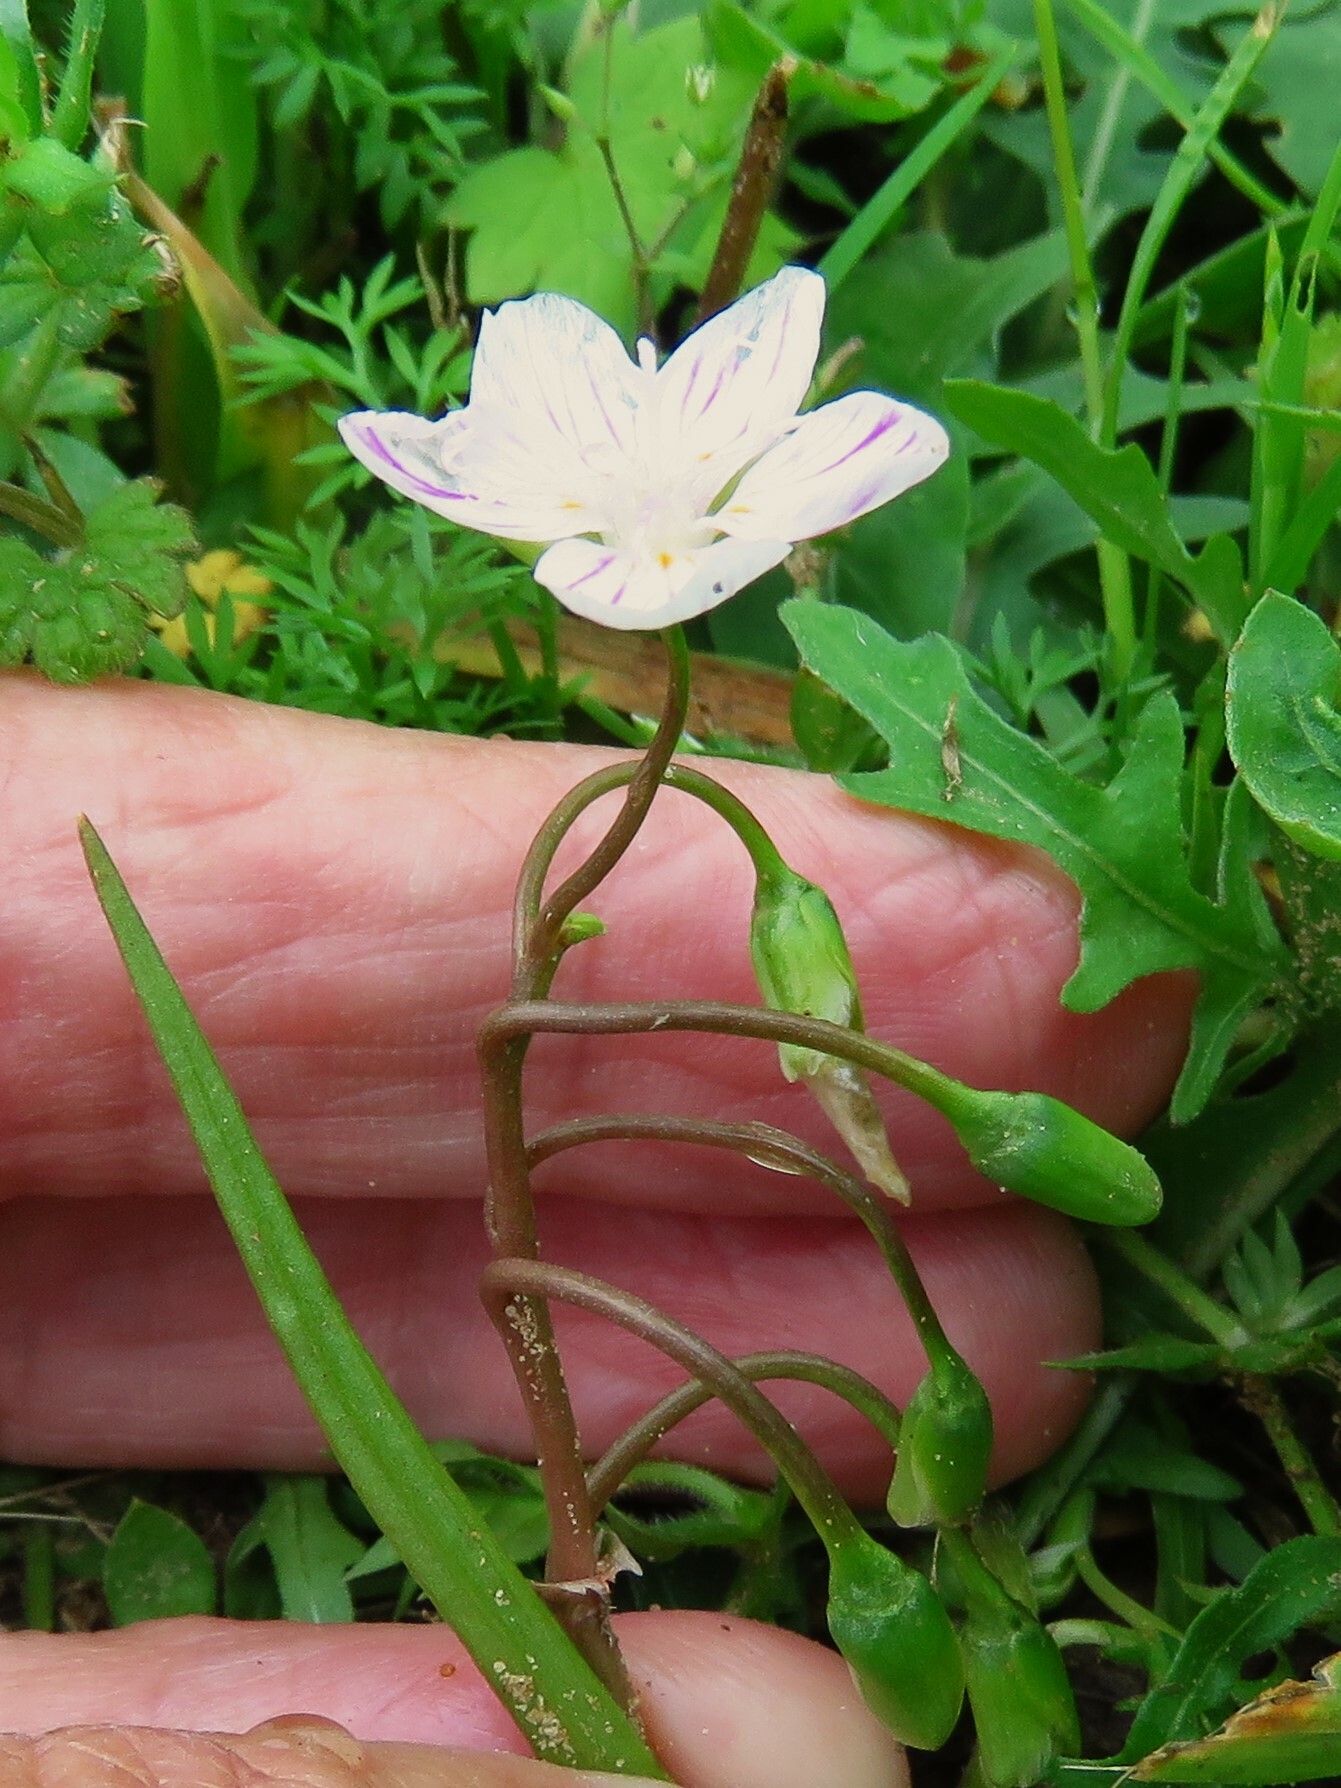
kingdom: Plantae
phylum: Tracheophyta
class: Magnoliopsida
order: Caryophyllales
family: Montiaceae
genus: Claytonia
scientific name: Claytonia virginica
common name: Virginia springbeauty
